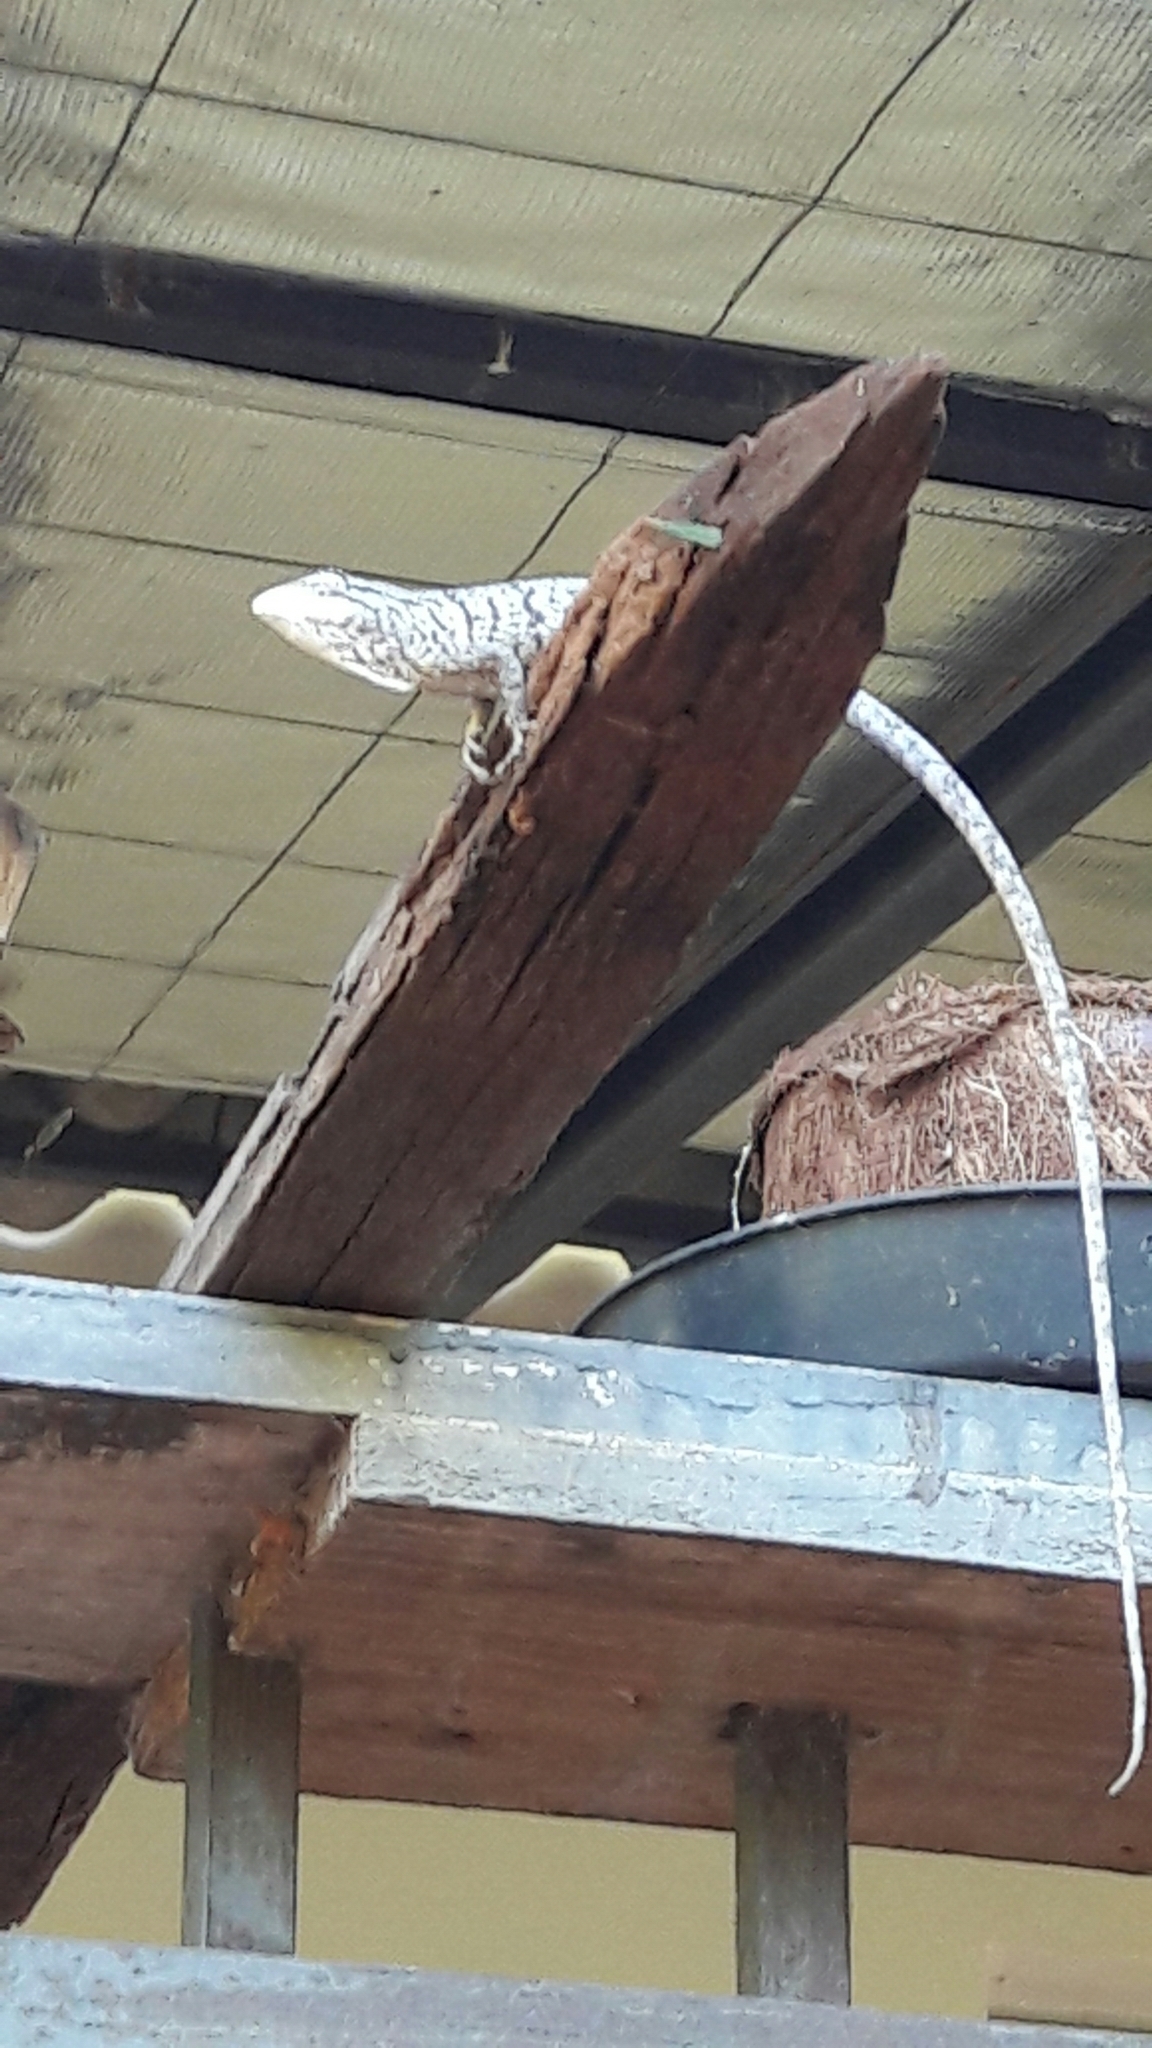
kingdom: Animalia
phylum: Chordata
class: Squamata
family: Polychrotidae
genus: Polychrus
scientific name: Polychrus acutirostris
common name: Brazilian bush anole
